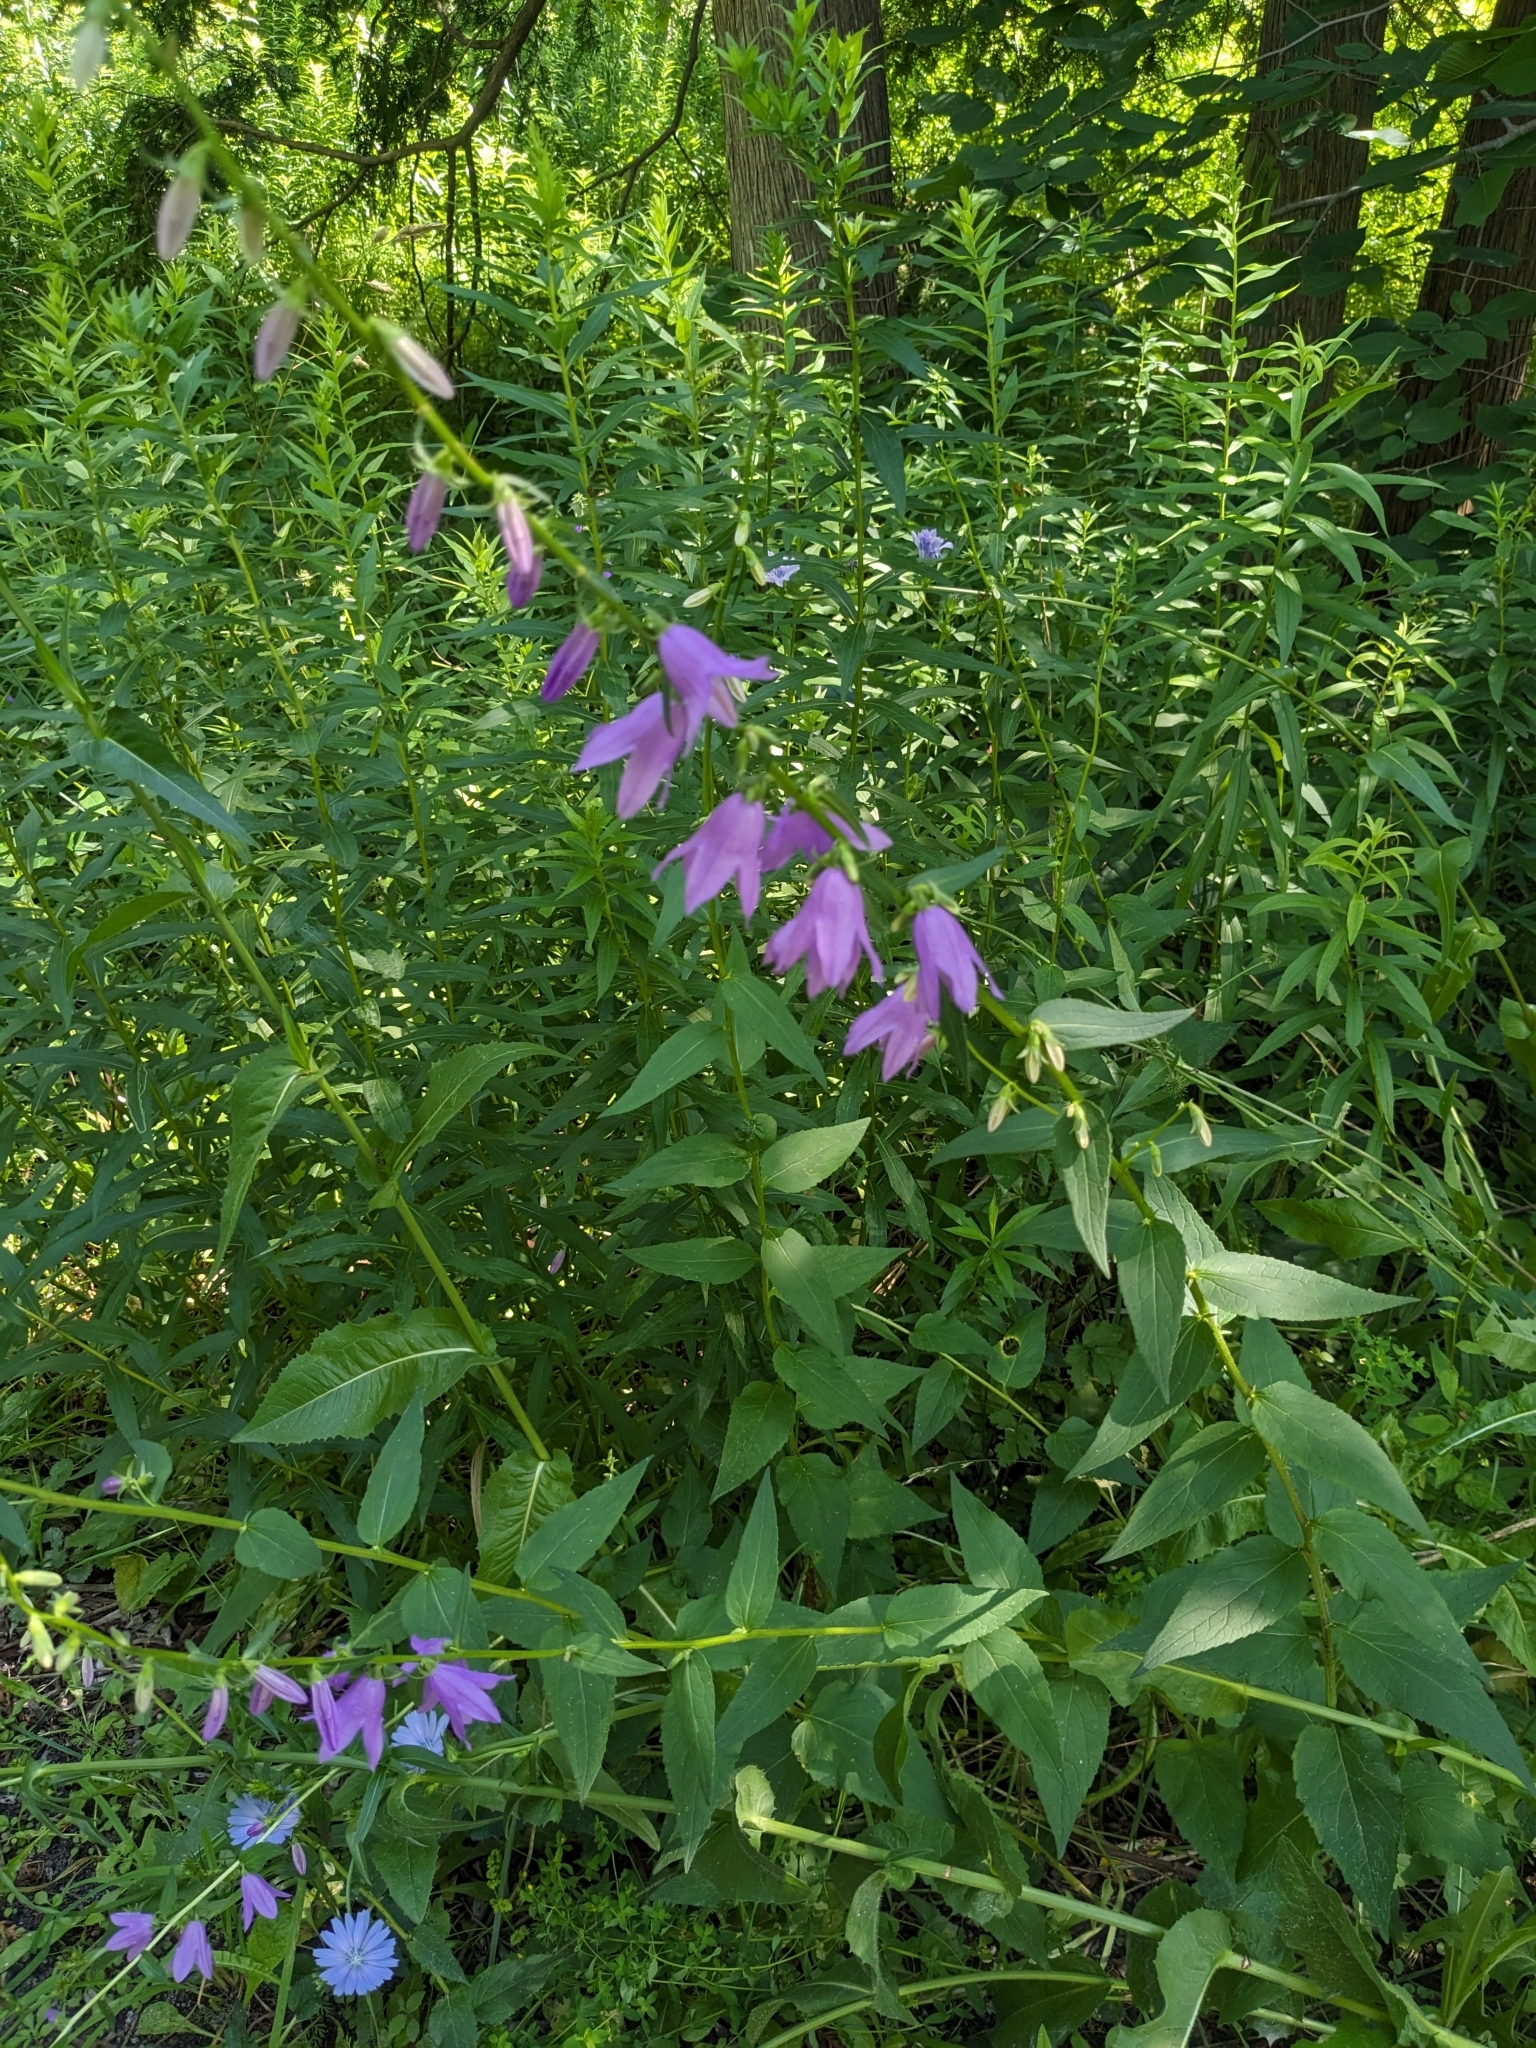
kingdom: Plantae
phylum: Tracheophyta
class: Magnoliopsida
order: Asterales
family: Campanulaceae
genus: Campanula
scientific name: Campanula rapunculoides
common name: Creeping bellflower
